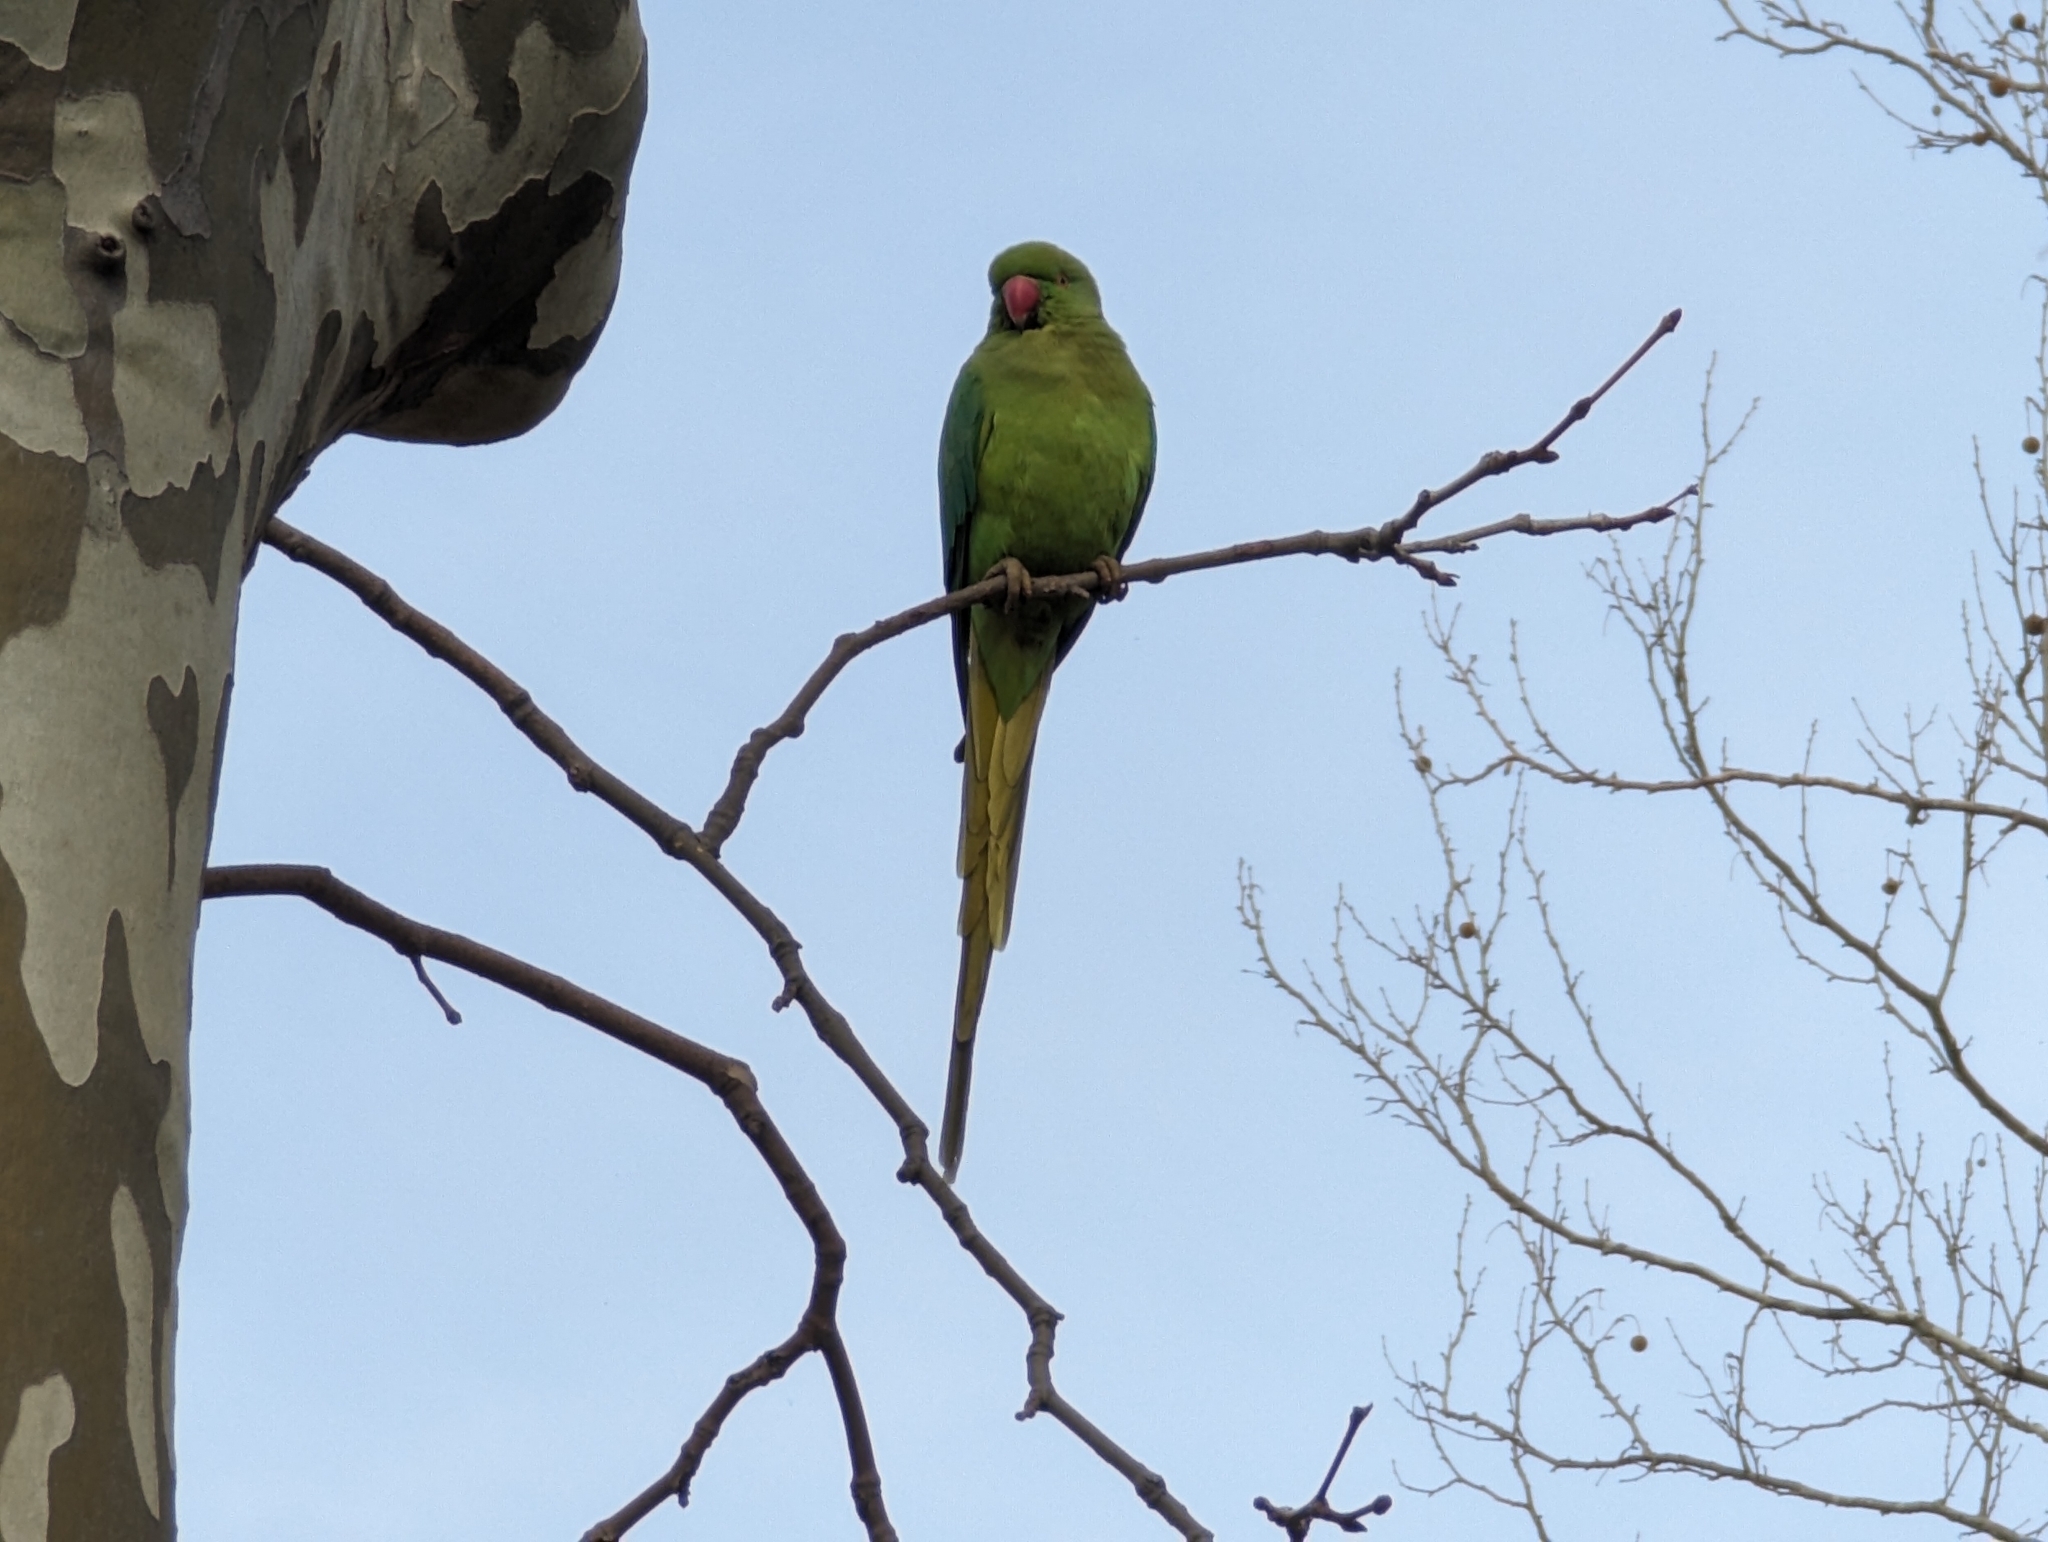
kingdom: Animalia
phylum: Chordata
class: Aves
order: Psittaciformes
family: Psittacidae
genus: Psittacula
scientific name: Psittacula krameri
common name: Rose-ringed parakeet
